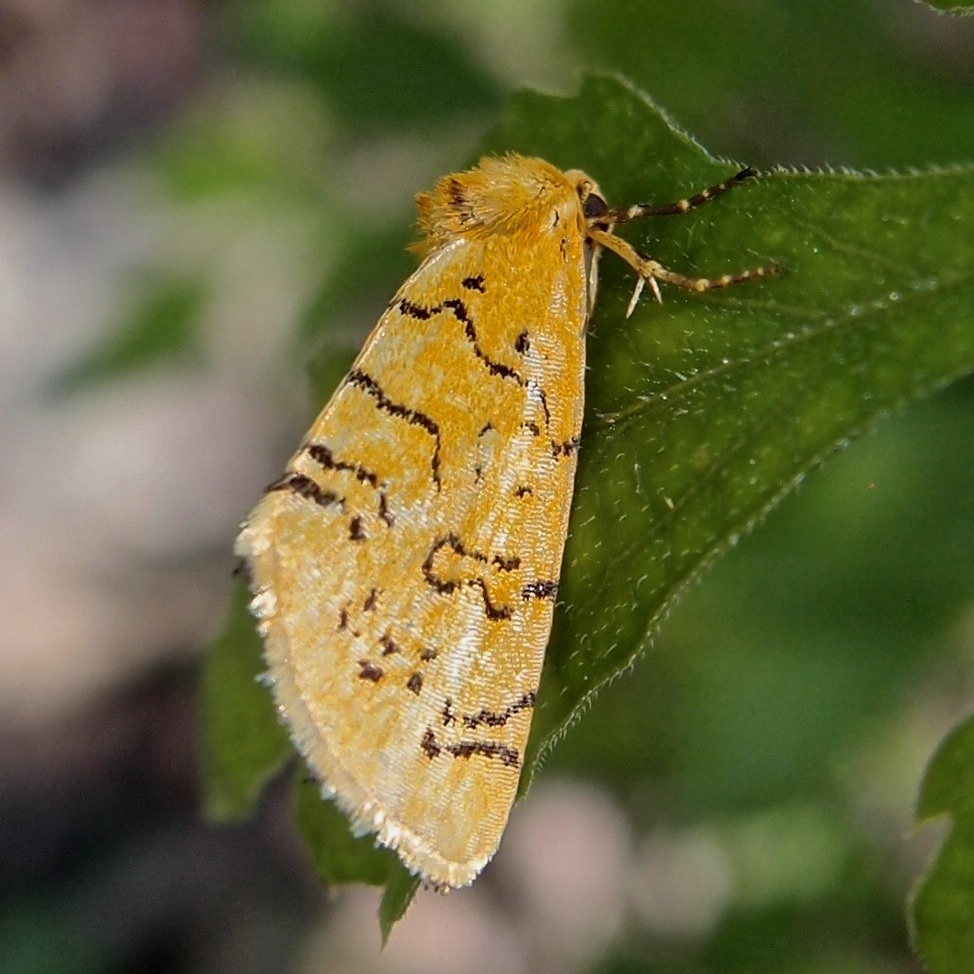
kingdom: Animalia
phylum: Arthropoda
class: Insecta
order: Lepidoptera
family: Noctuidae
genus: Chrysoecia
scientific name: Chrysoecia atrolinea
